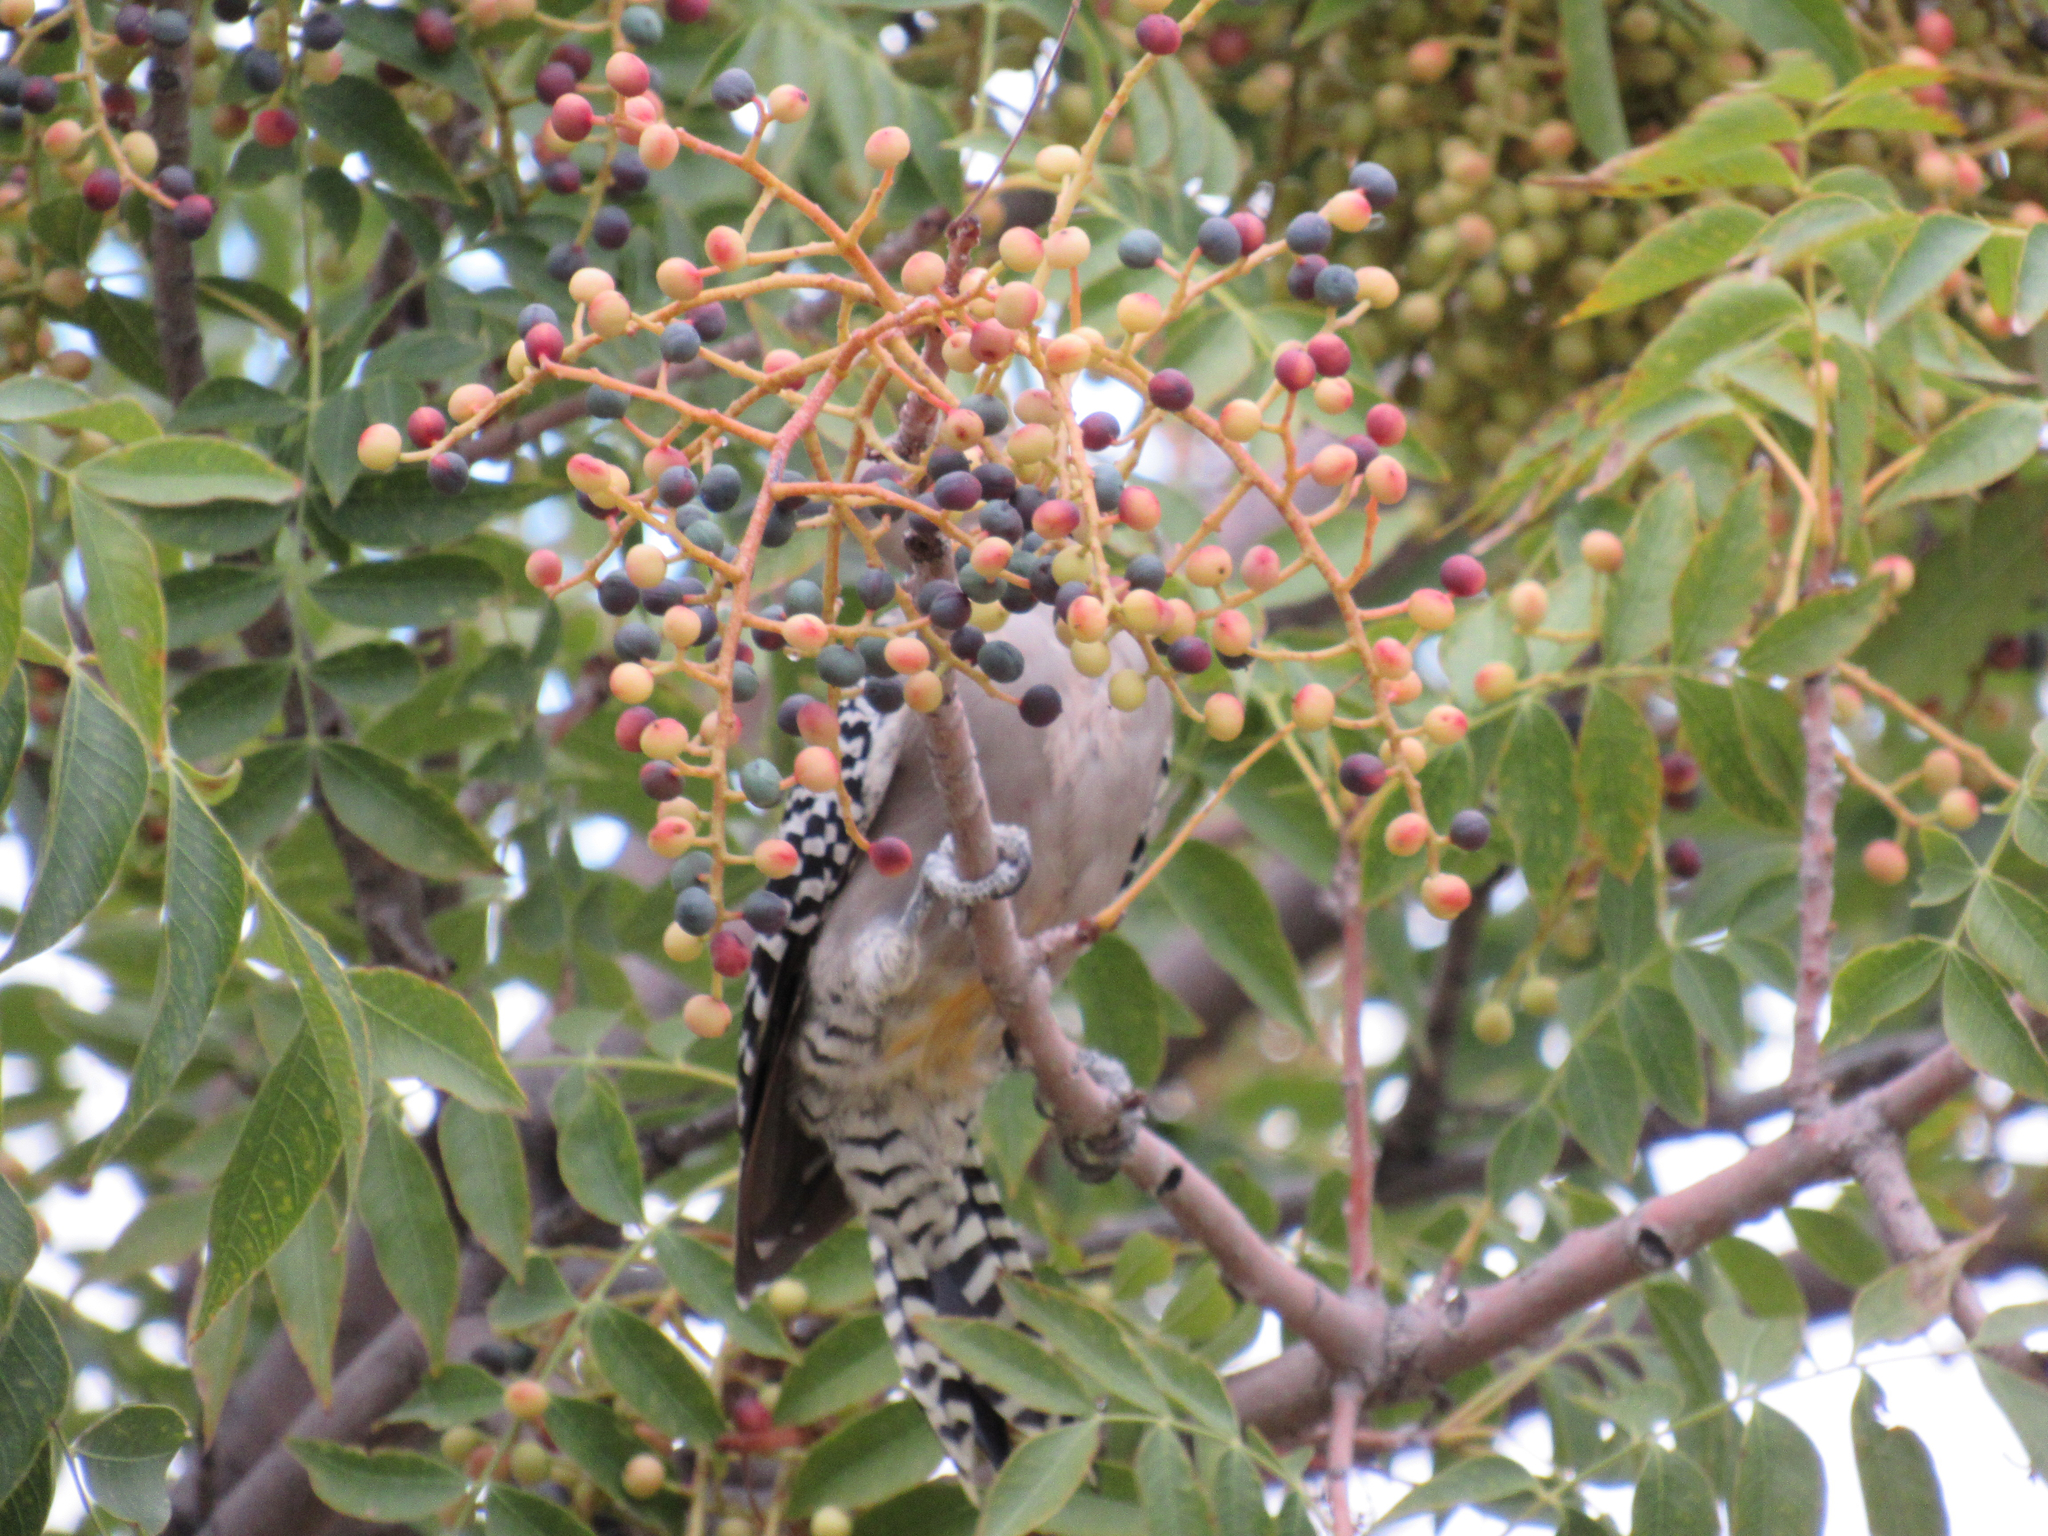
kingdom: Animalia
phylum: Chordata
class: Aves
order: Piciformes
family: Picidae
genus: Melanerpes
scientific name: Melanerpes uropygialis
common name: Gila woodpecker
